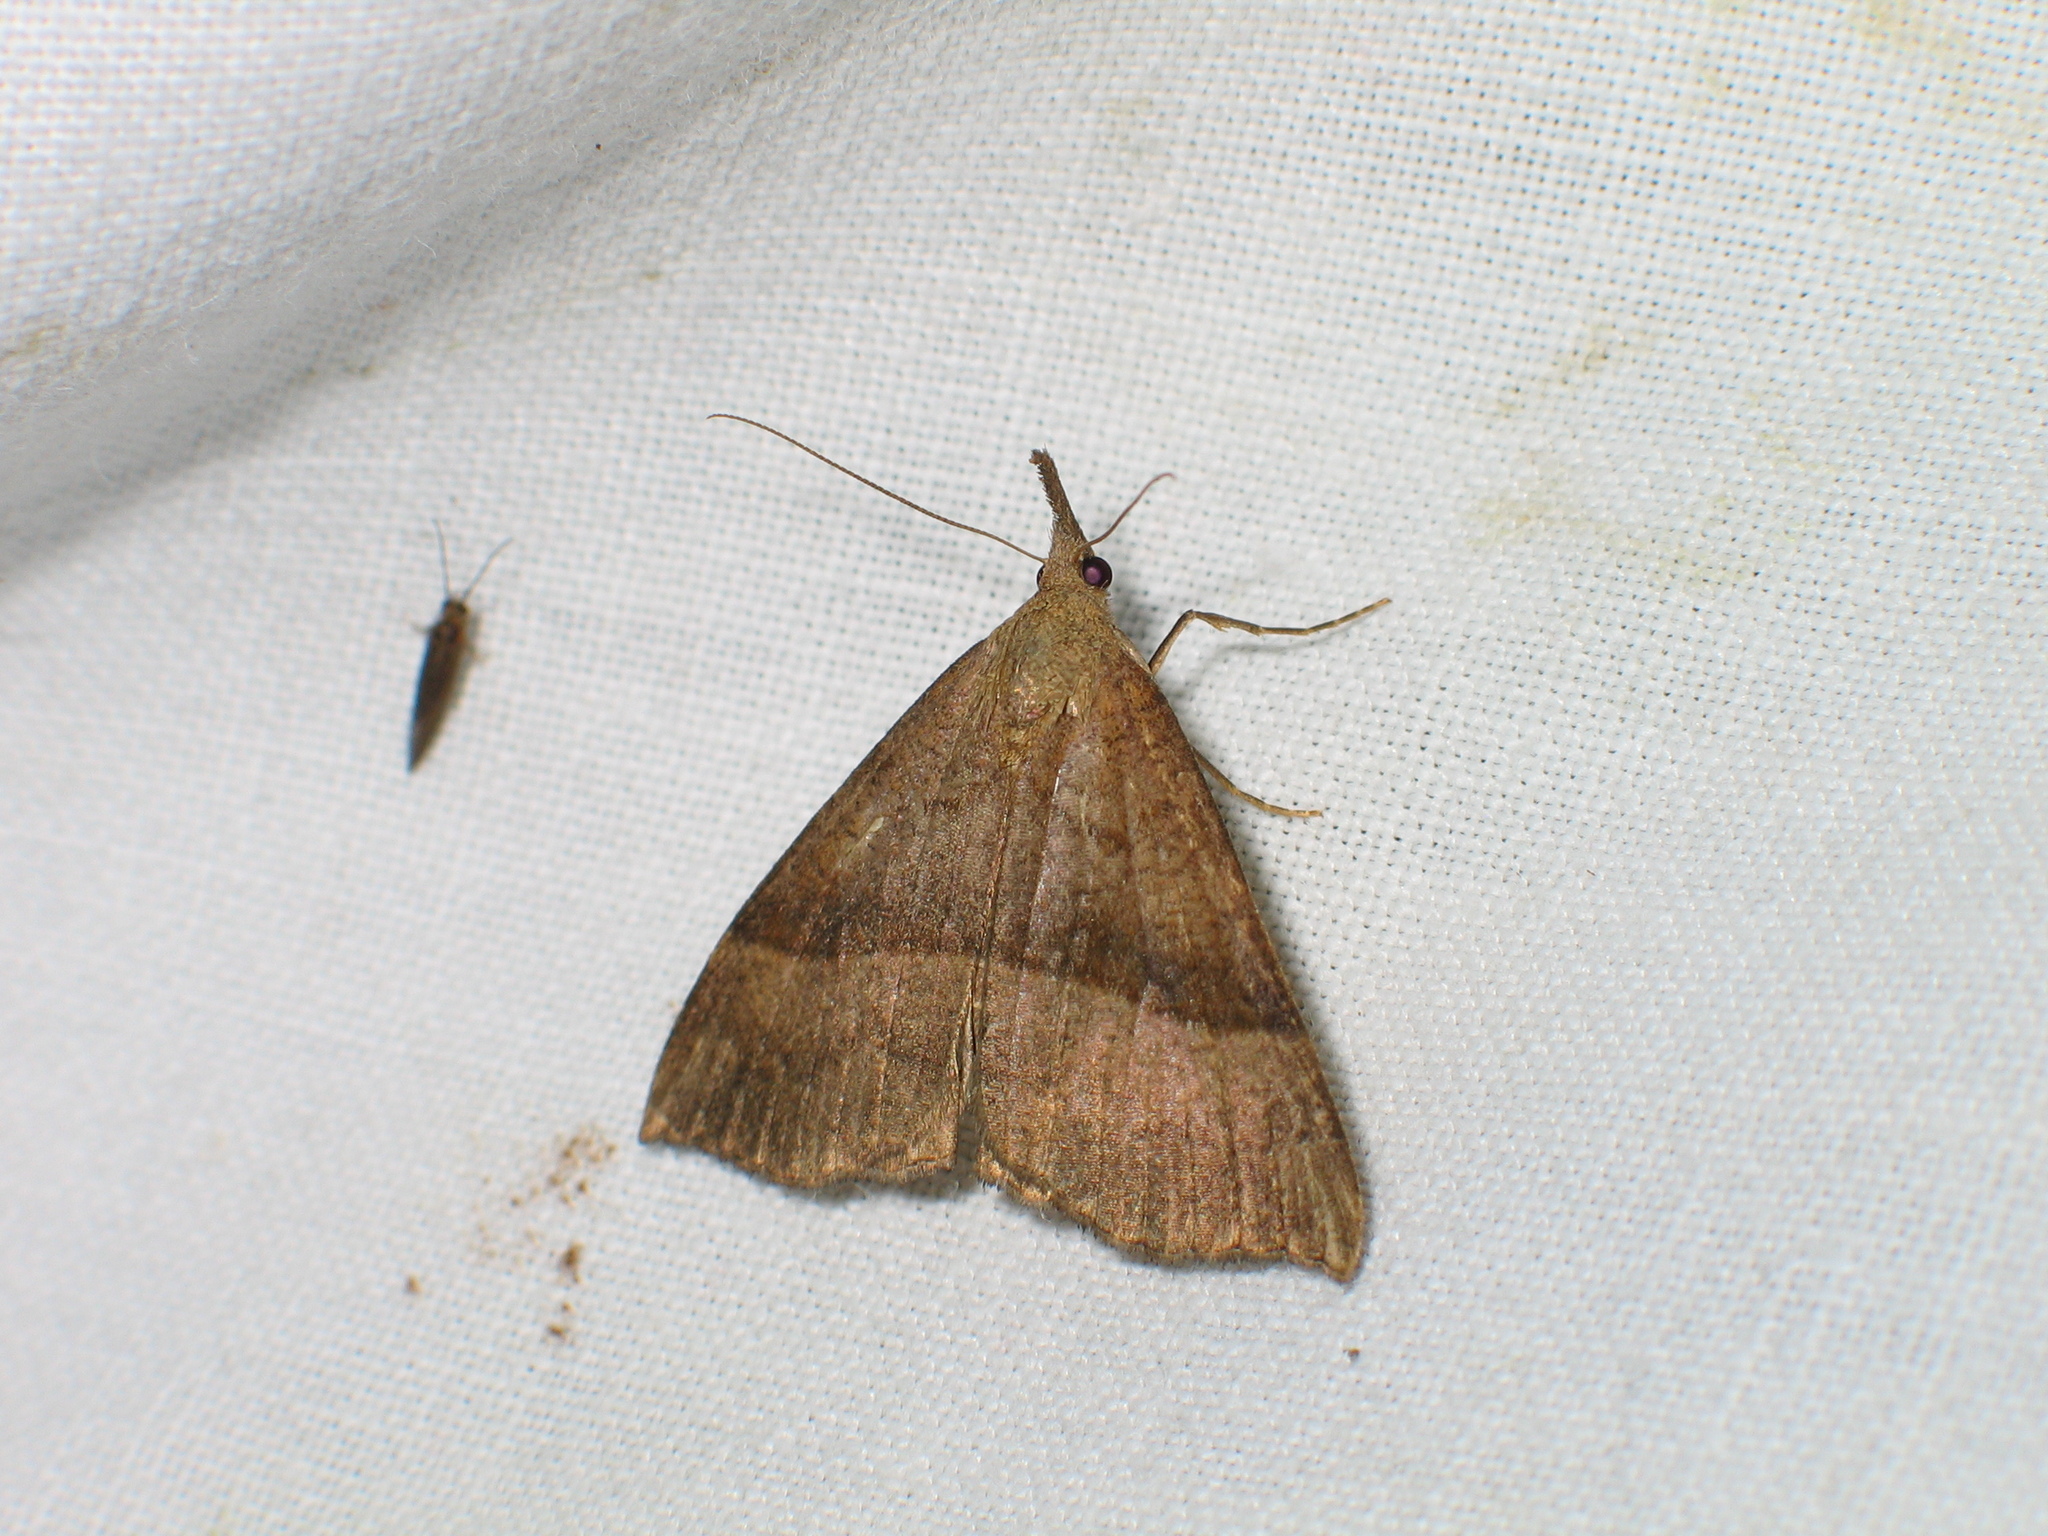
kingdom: Animalia
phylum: Arthropoda
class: Insecta
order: Lepidoptera
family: Erebidae
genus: Hypena
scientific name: Hypena proboscidalis
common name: Snout
